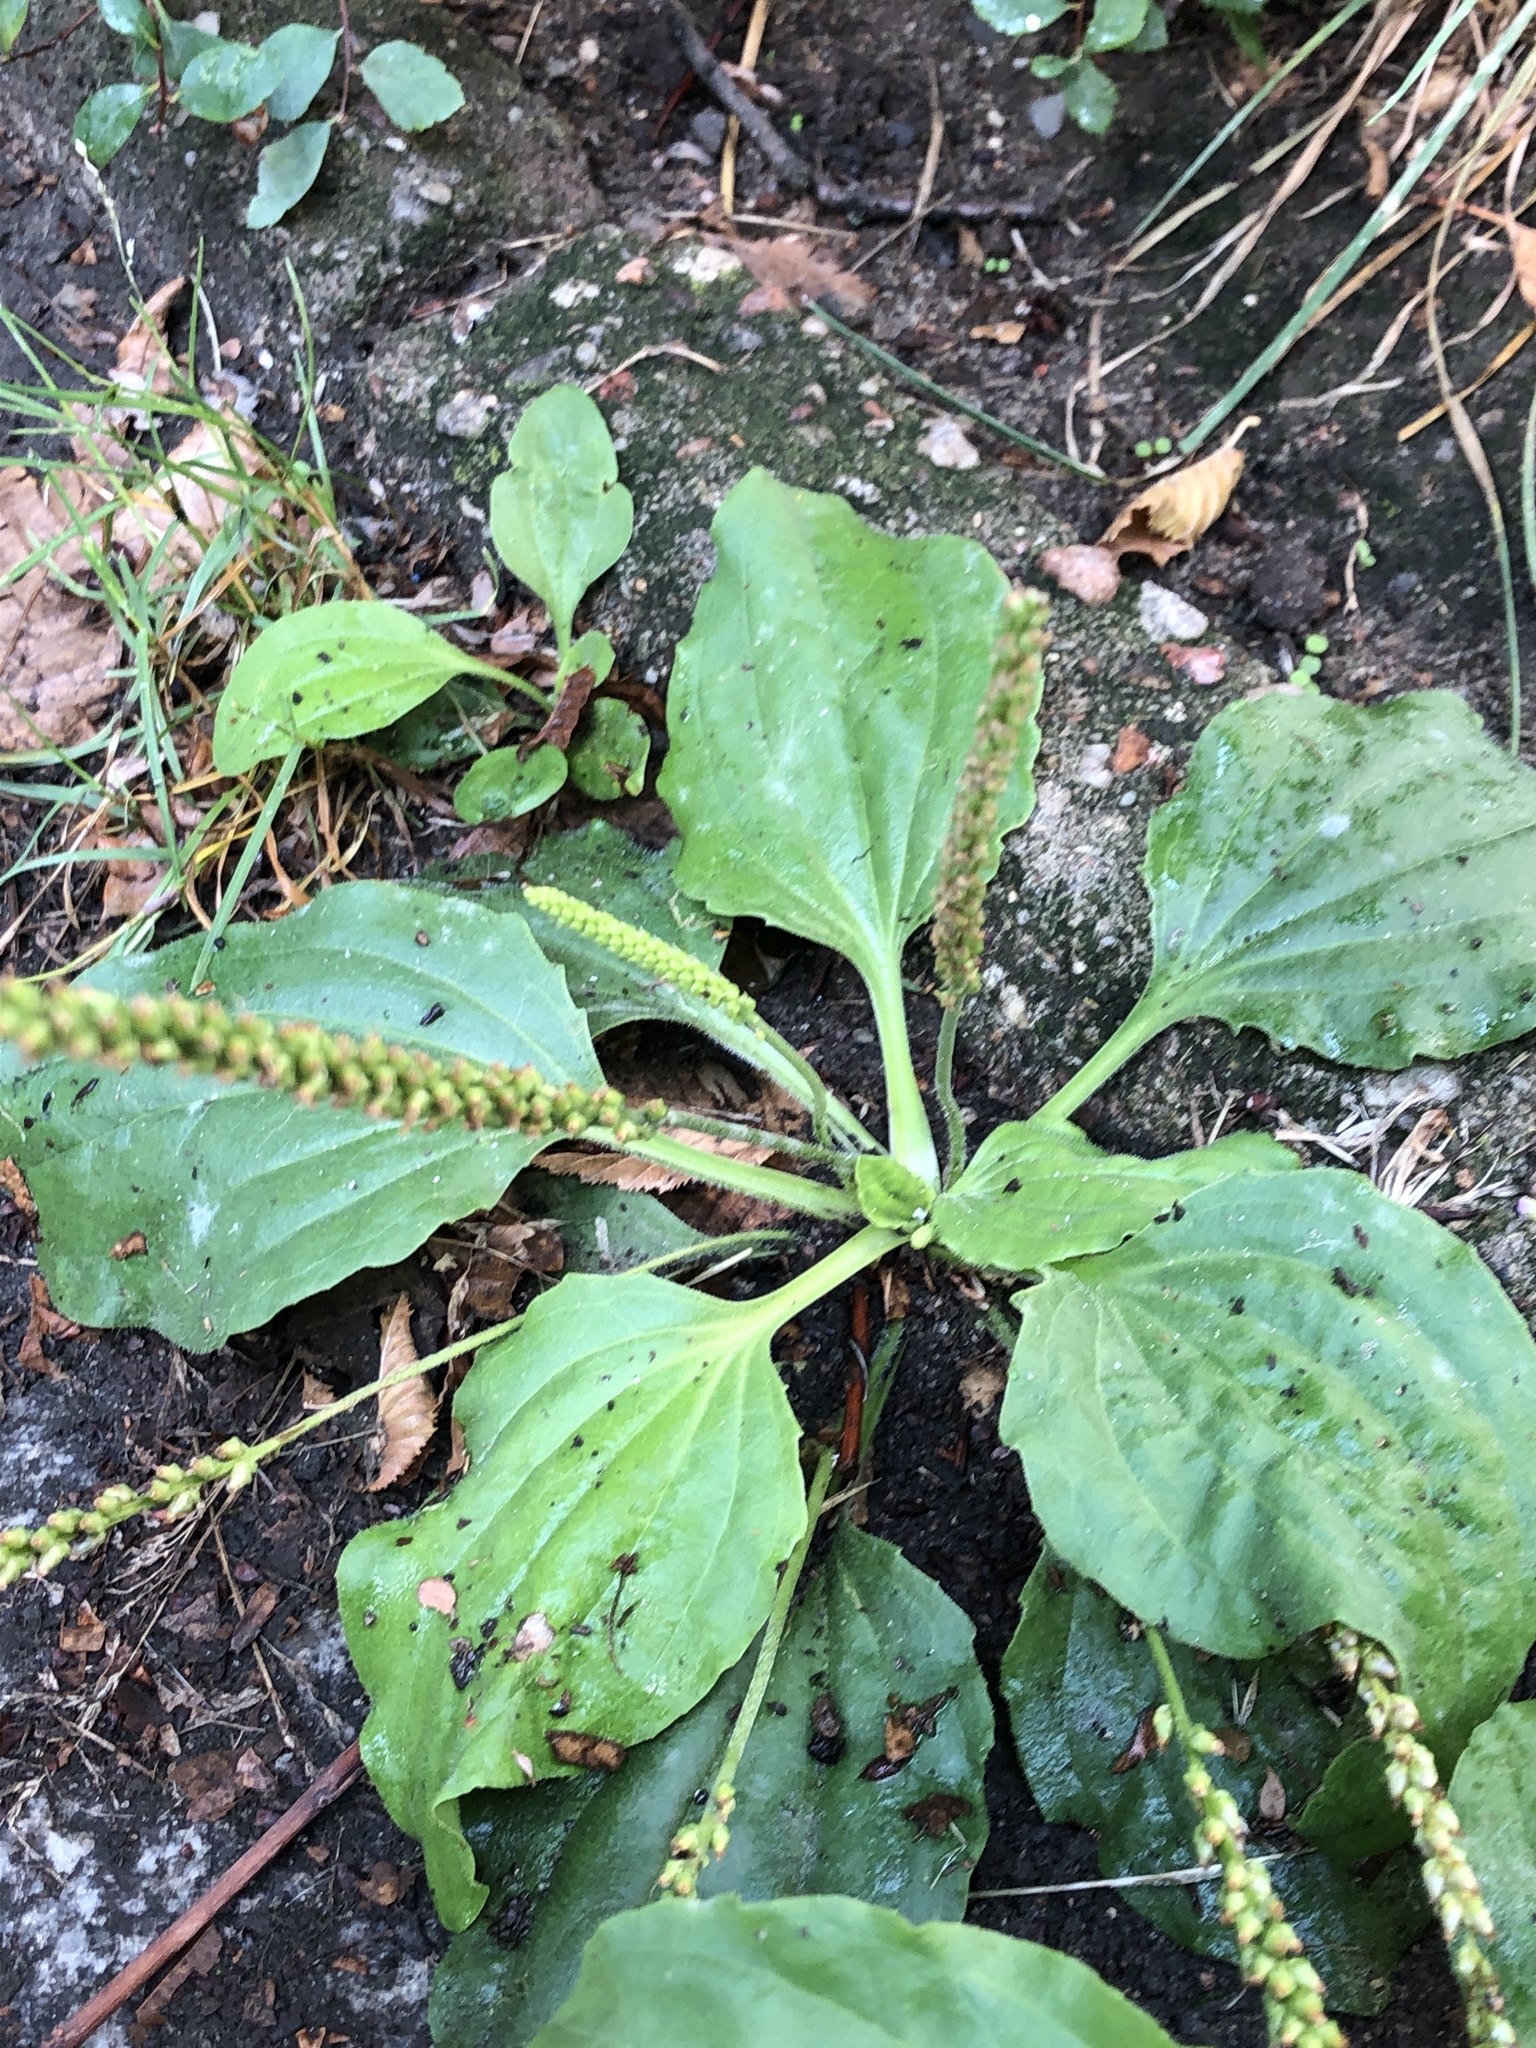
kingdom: Plantae
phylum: Tracheophyta
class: Magnoliopsida
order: Lamiales
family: Plantaginaceae
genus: Plantago
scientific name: Plantago major
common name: Common plantain
